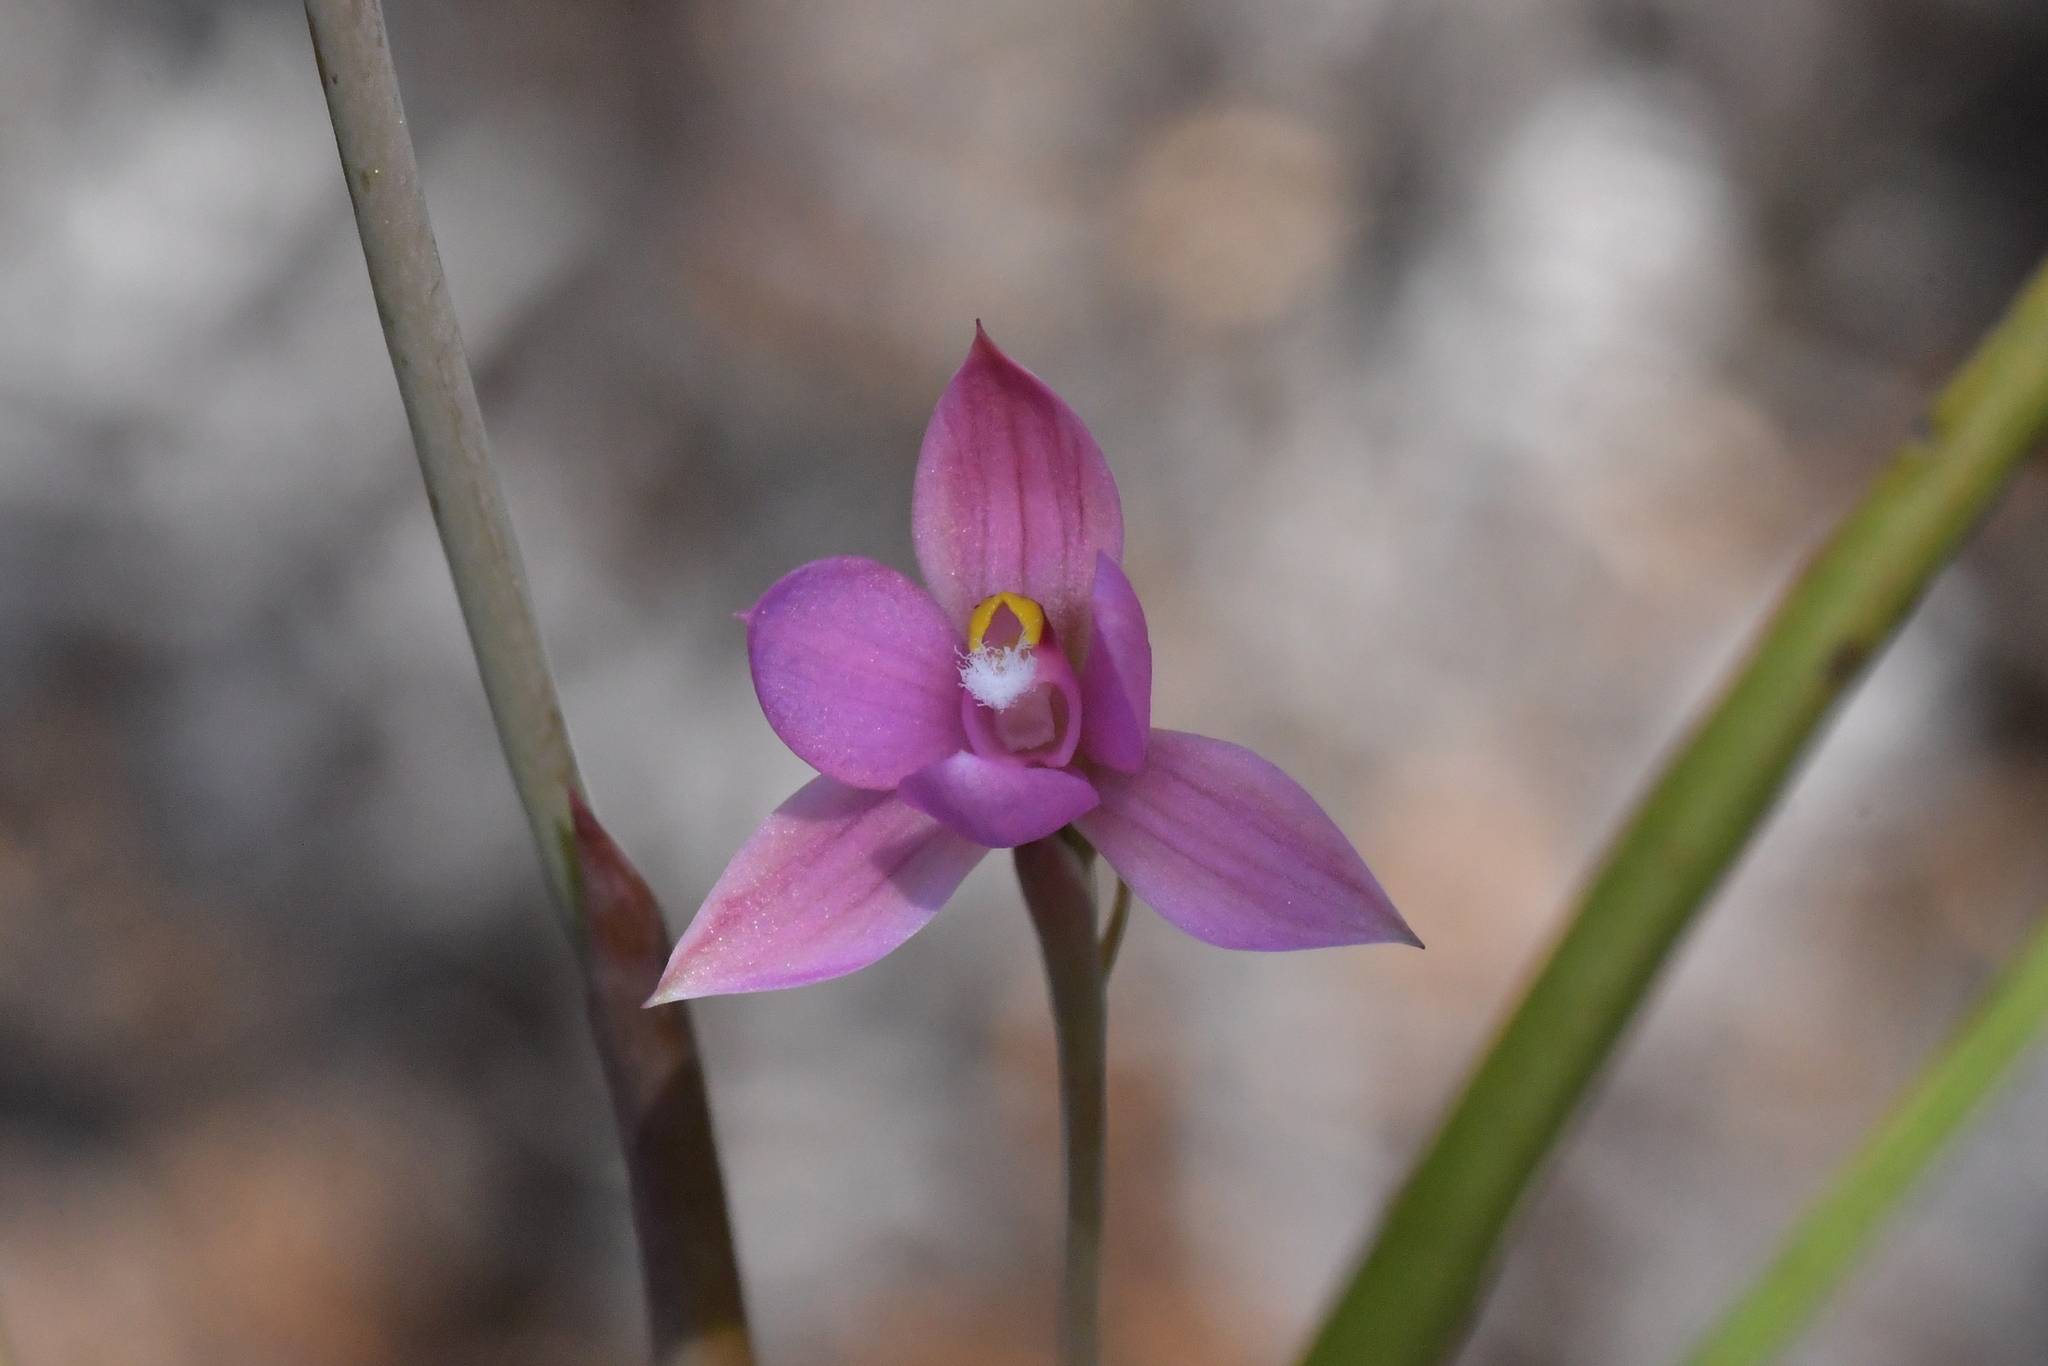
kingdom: Plantae
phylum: Tracheophyta
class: Liliopsida
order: Asparagales
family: Orchidaceae
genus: Thelymitra
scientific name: Thelymitra nervosa
